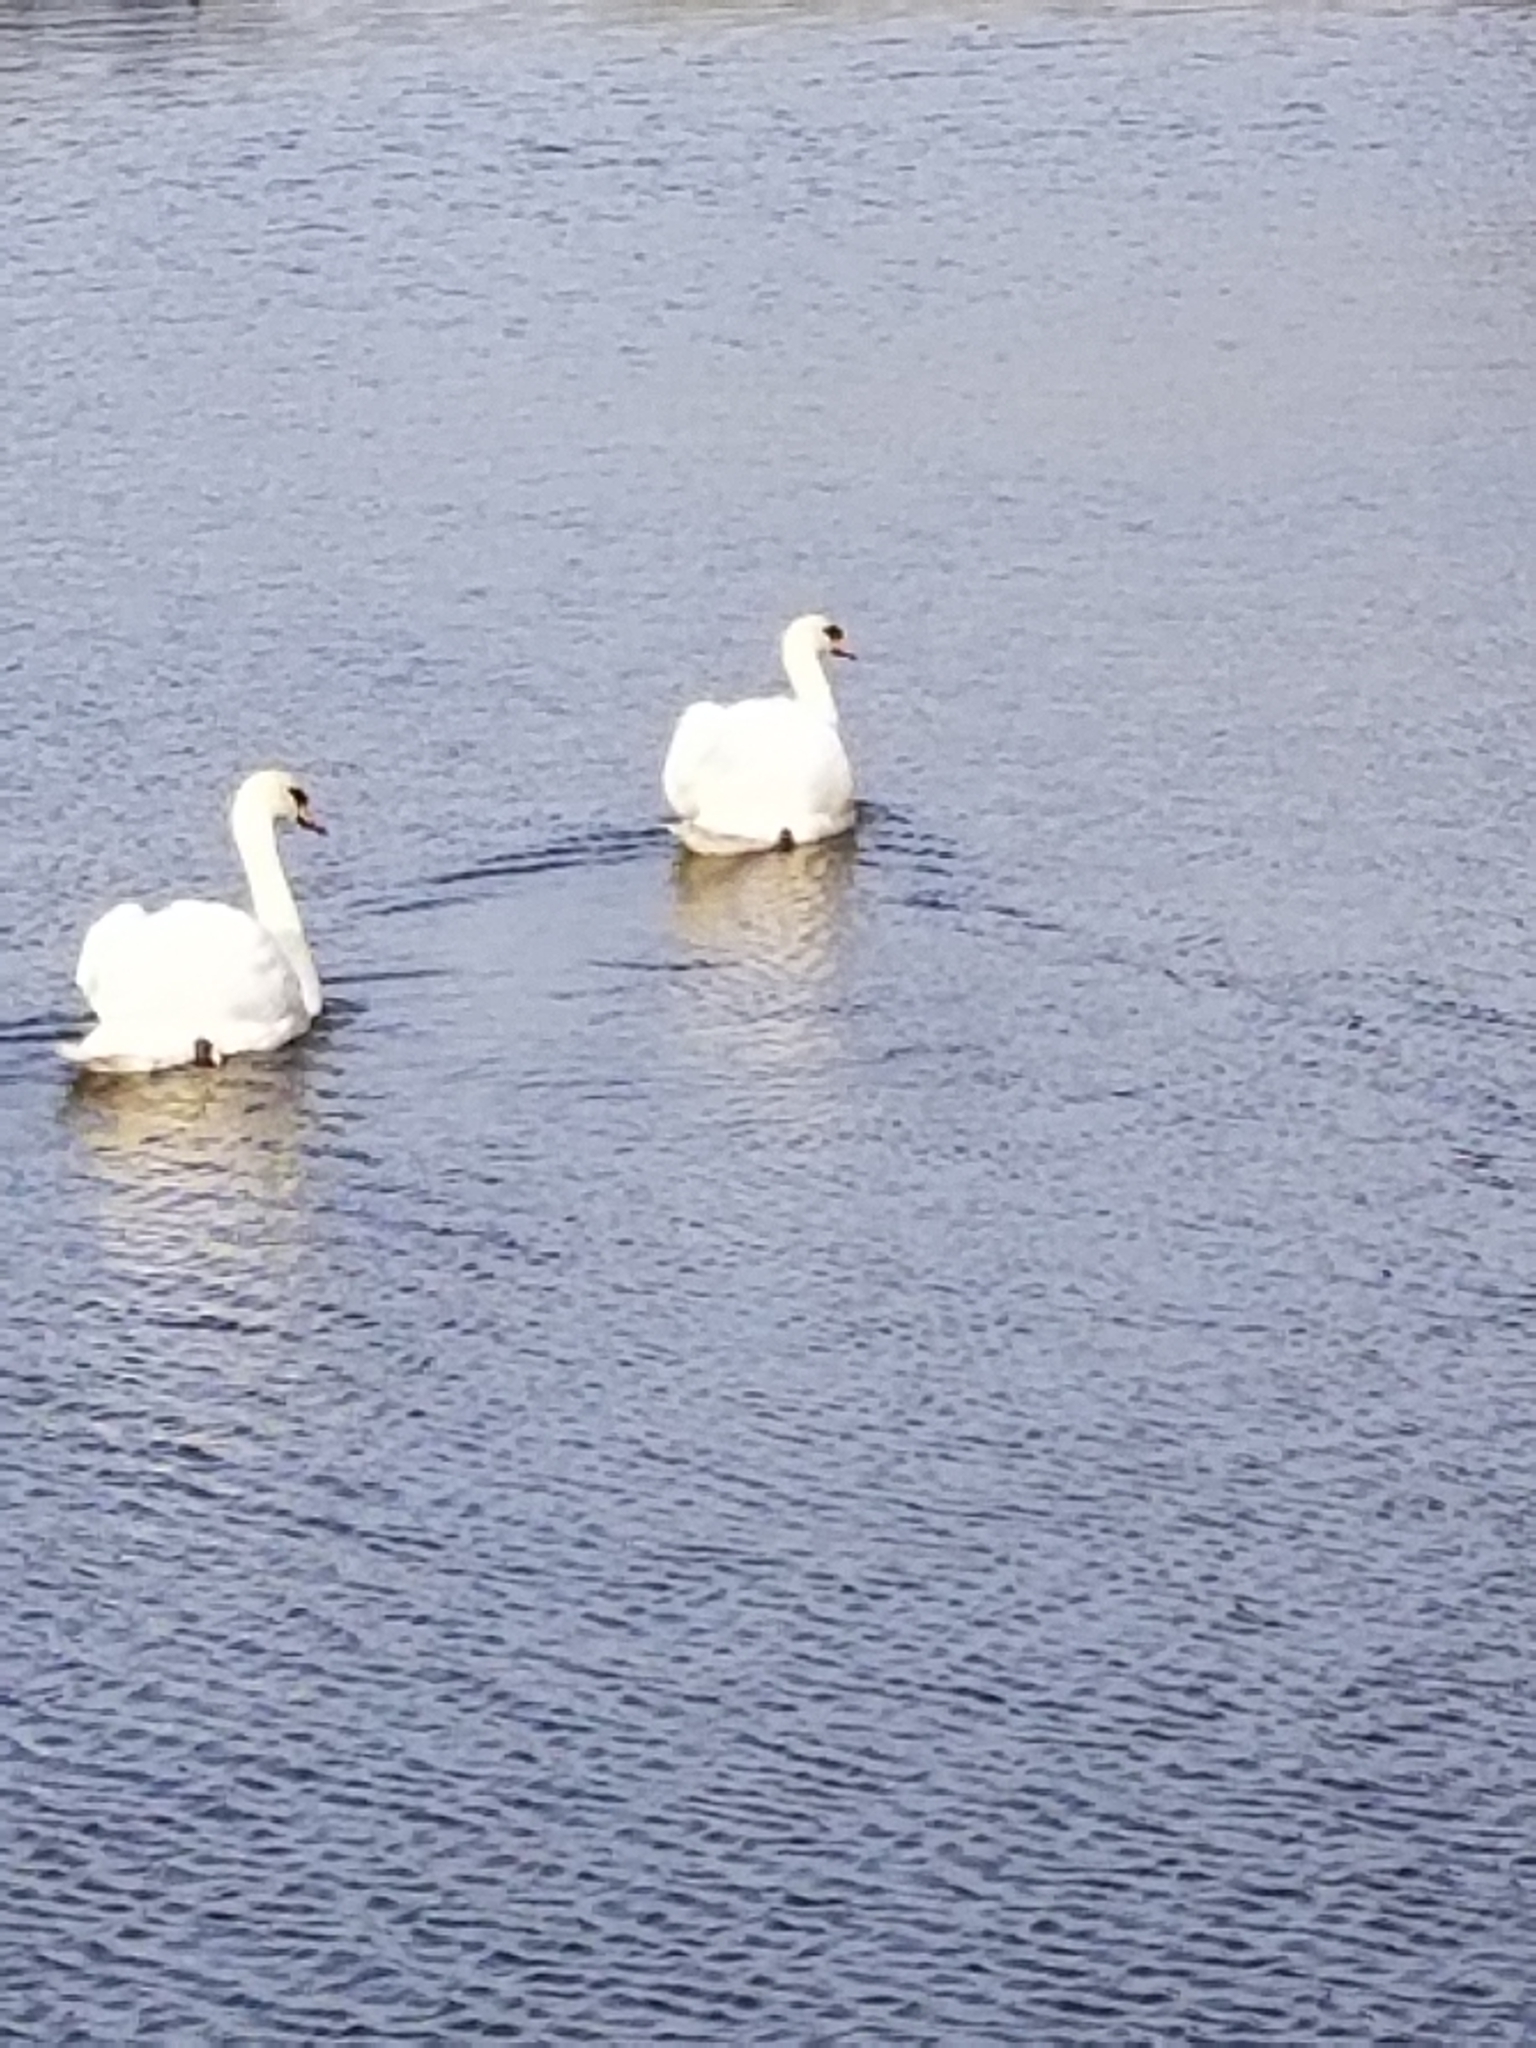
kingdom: Animalia
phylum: Chordata
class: Aves
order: Anseriformes
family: Anatidae
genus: Cygnus
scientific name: Cygnus olor
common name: Mute swan
